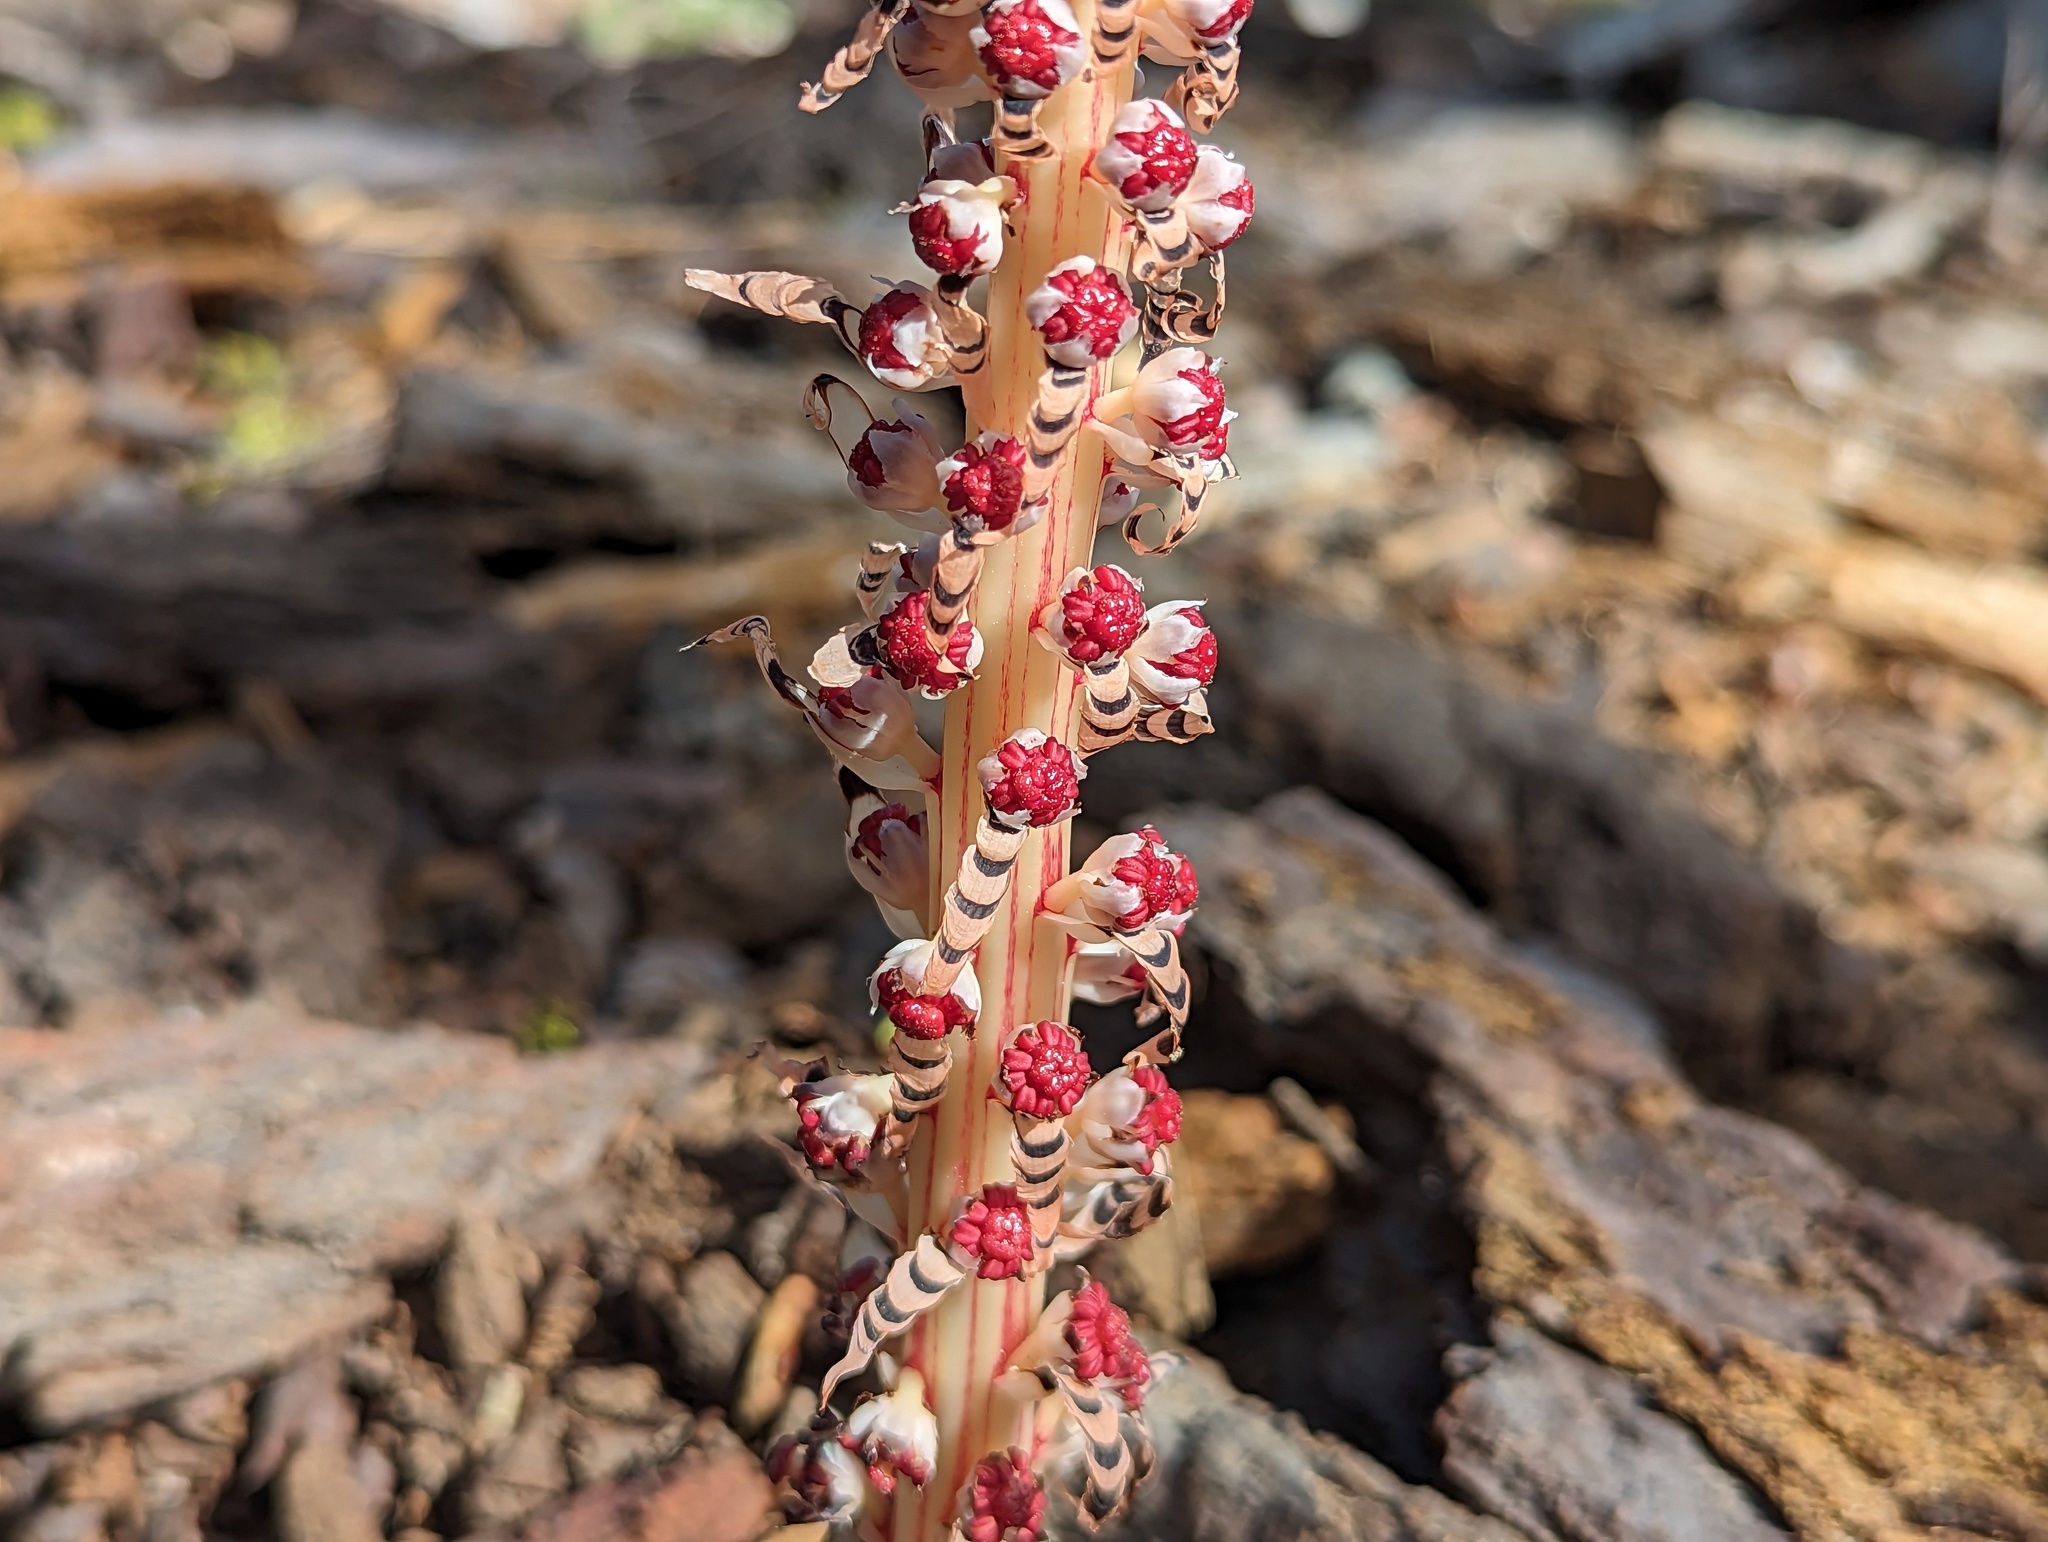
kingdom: Plantae
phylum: Tracheophyta
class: Magnoliopsida
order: Ericales
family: Ericaceae
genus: Allotropa
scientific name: Allotropa virgata
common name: Candy-striped allotropa
